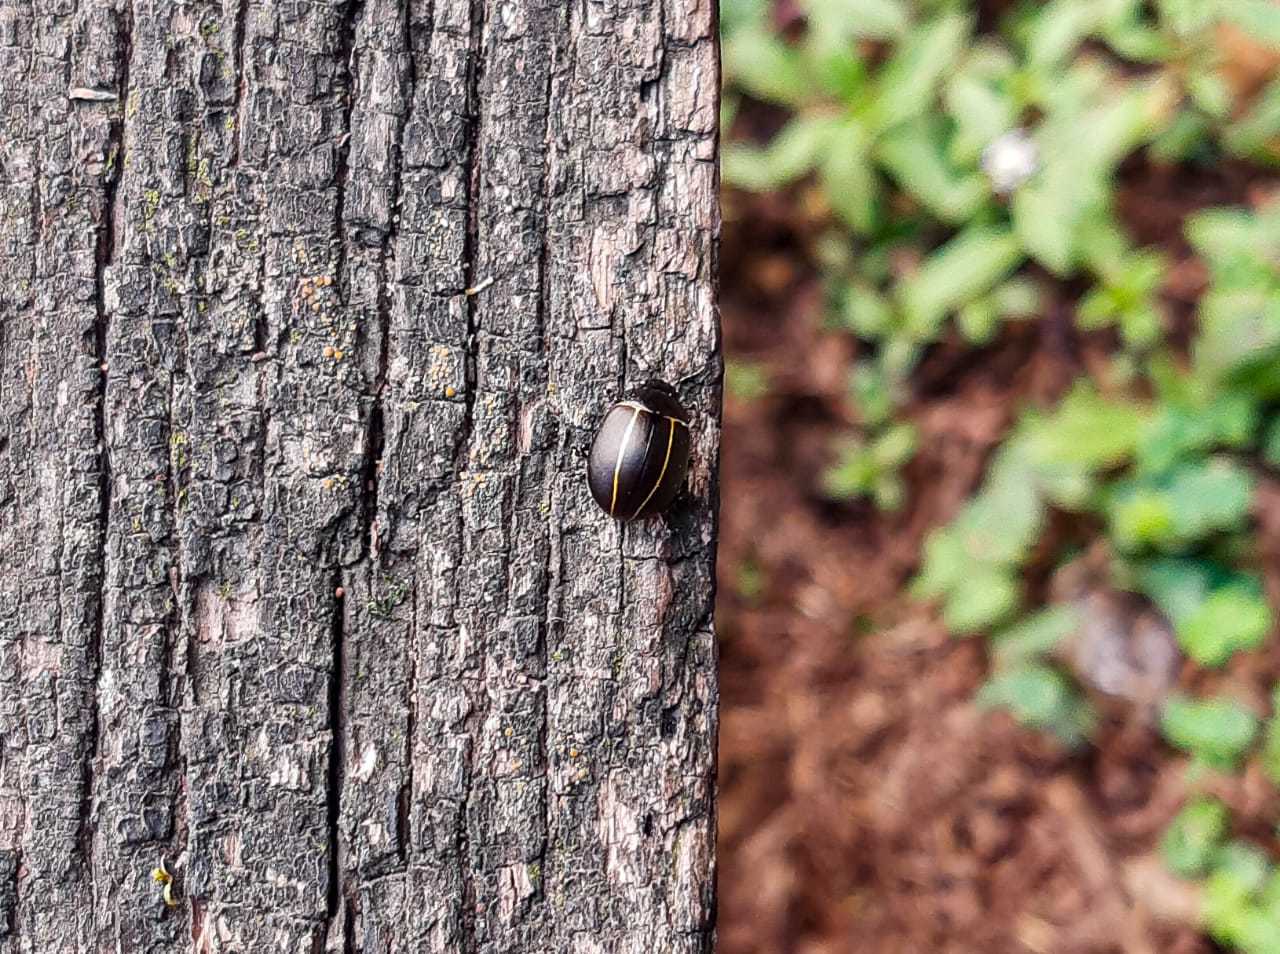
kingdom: Animalia
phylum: Arthropoda
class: Insecta
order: Coleoptera
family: Chrysomelidae
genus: Cosmogramma
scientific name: Cosmogramma
